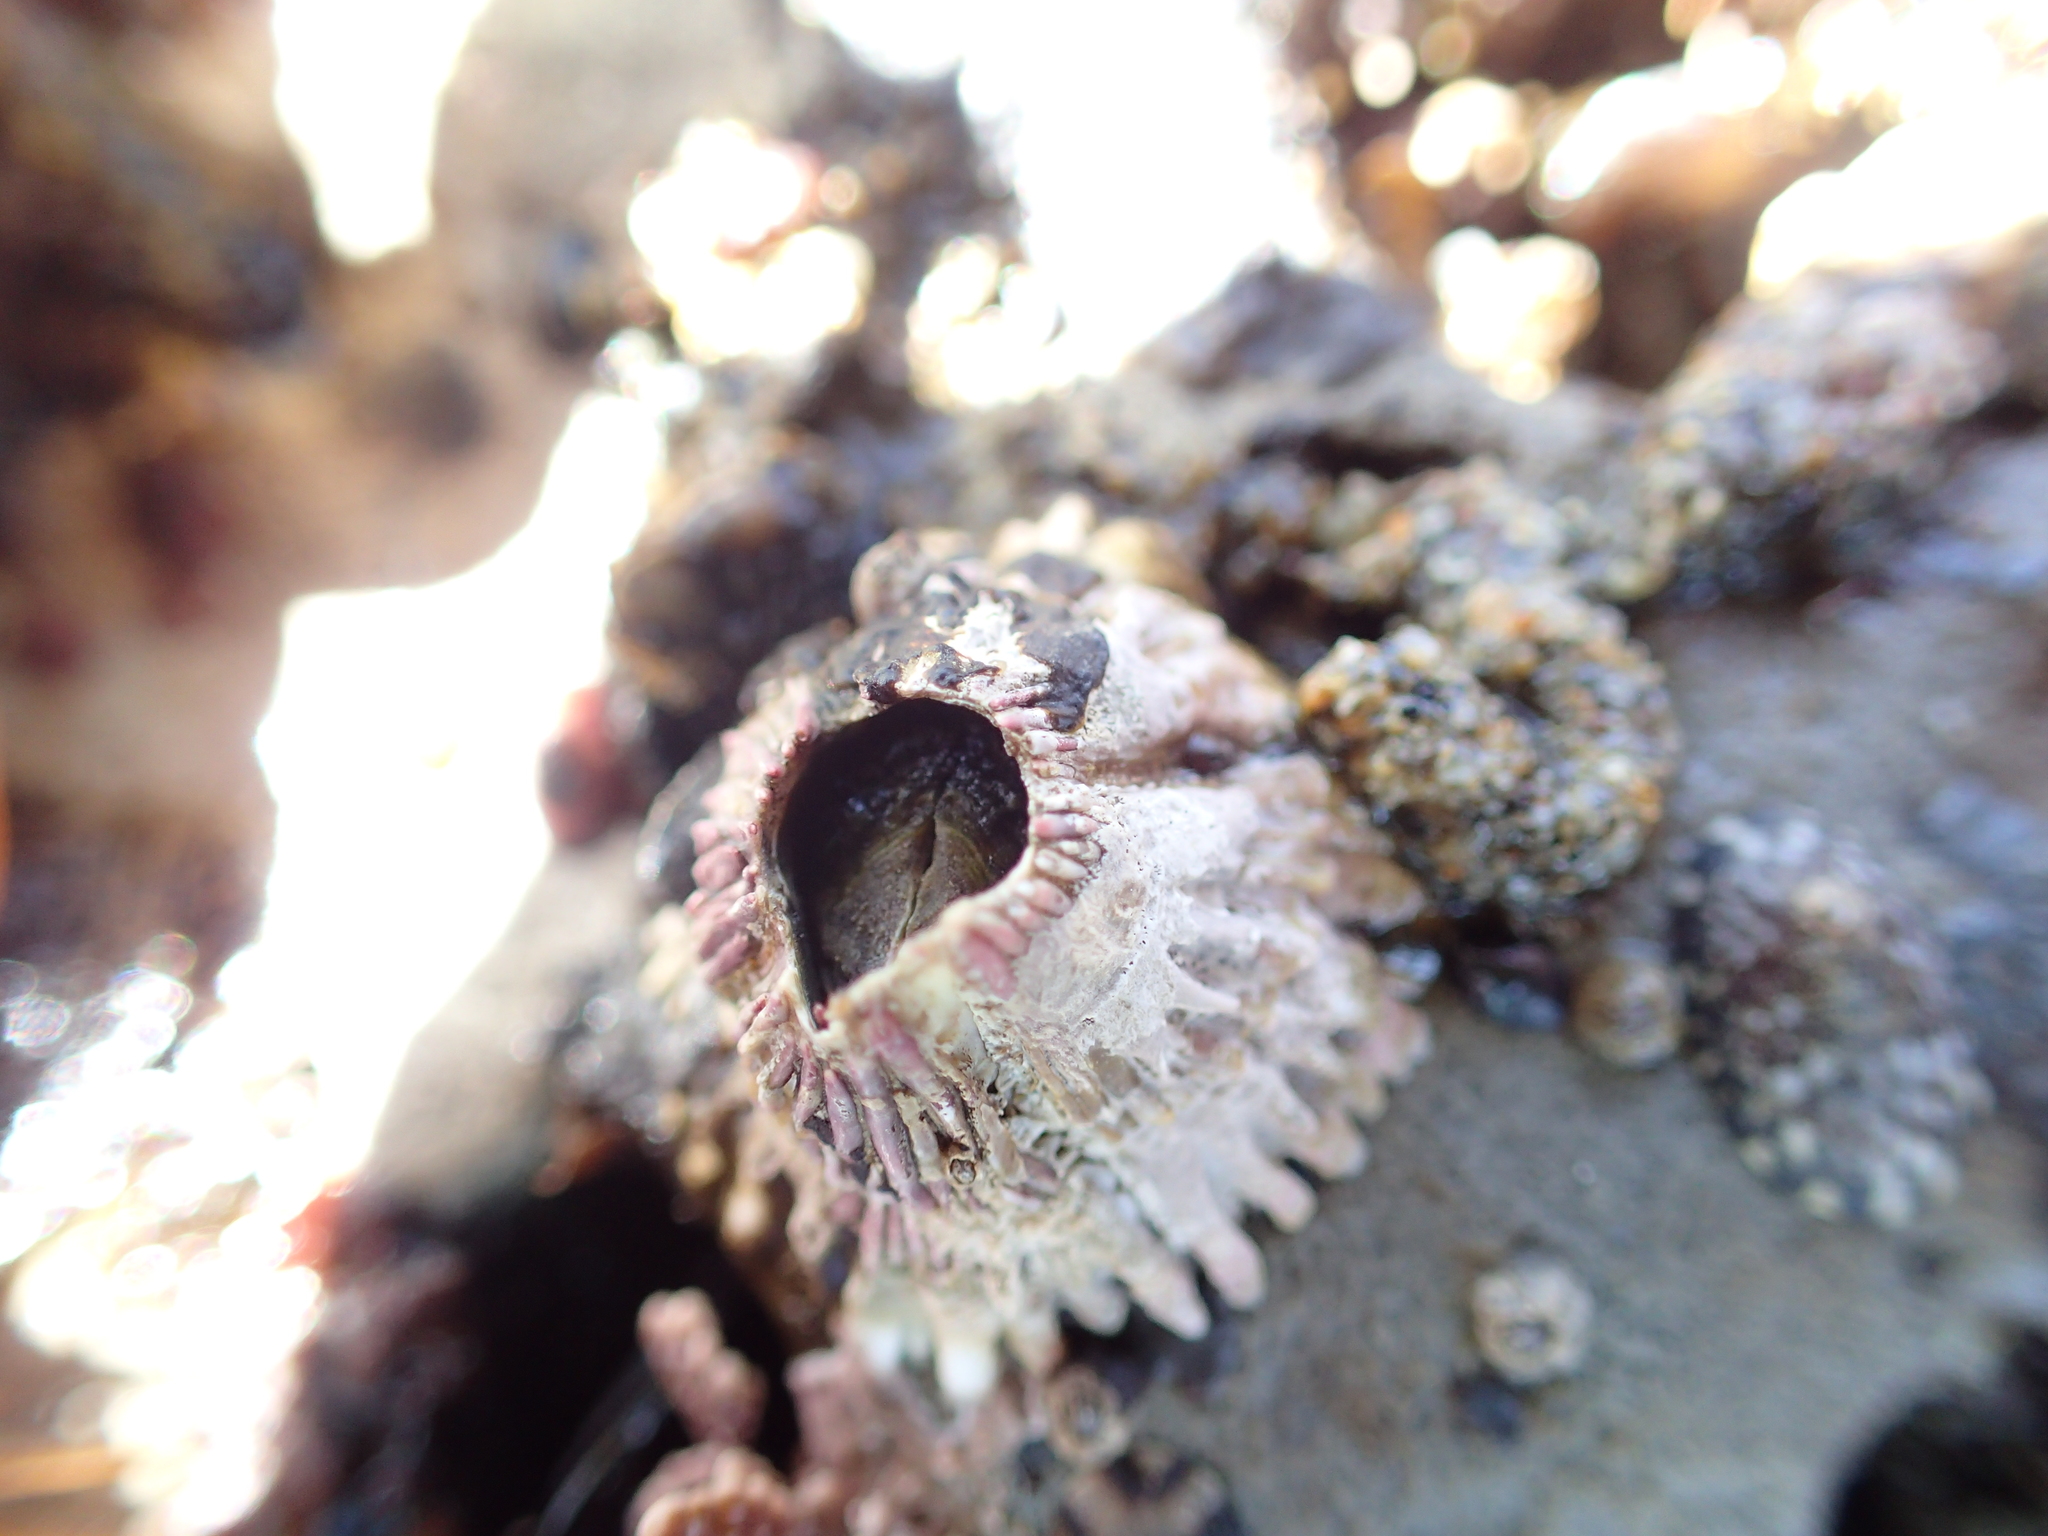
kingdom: Animalia
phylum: Arthropoda
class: Maxillopoda
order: Sessilia
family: Tetraclitidae
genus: Tetraclita
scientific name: Tetraclita rubescens
